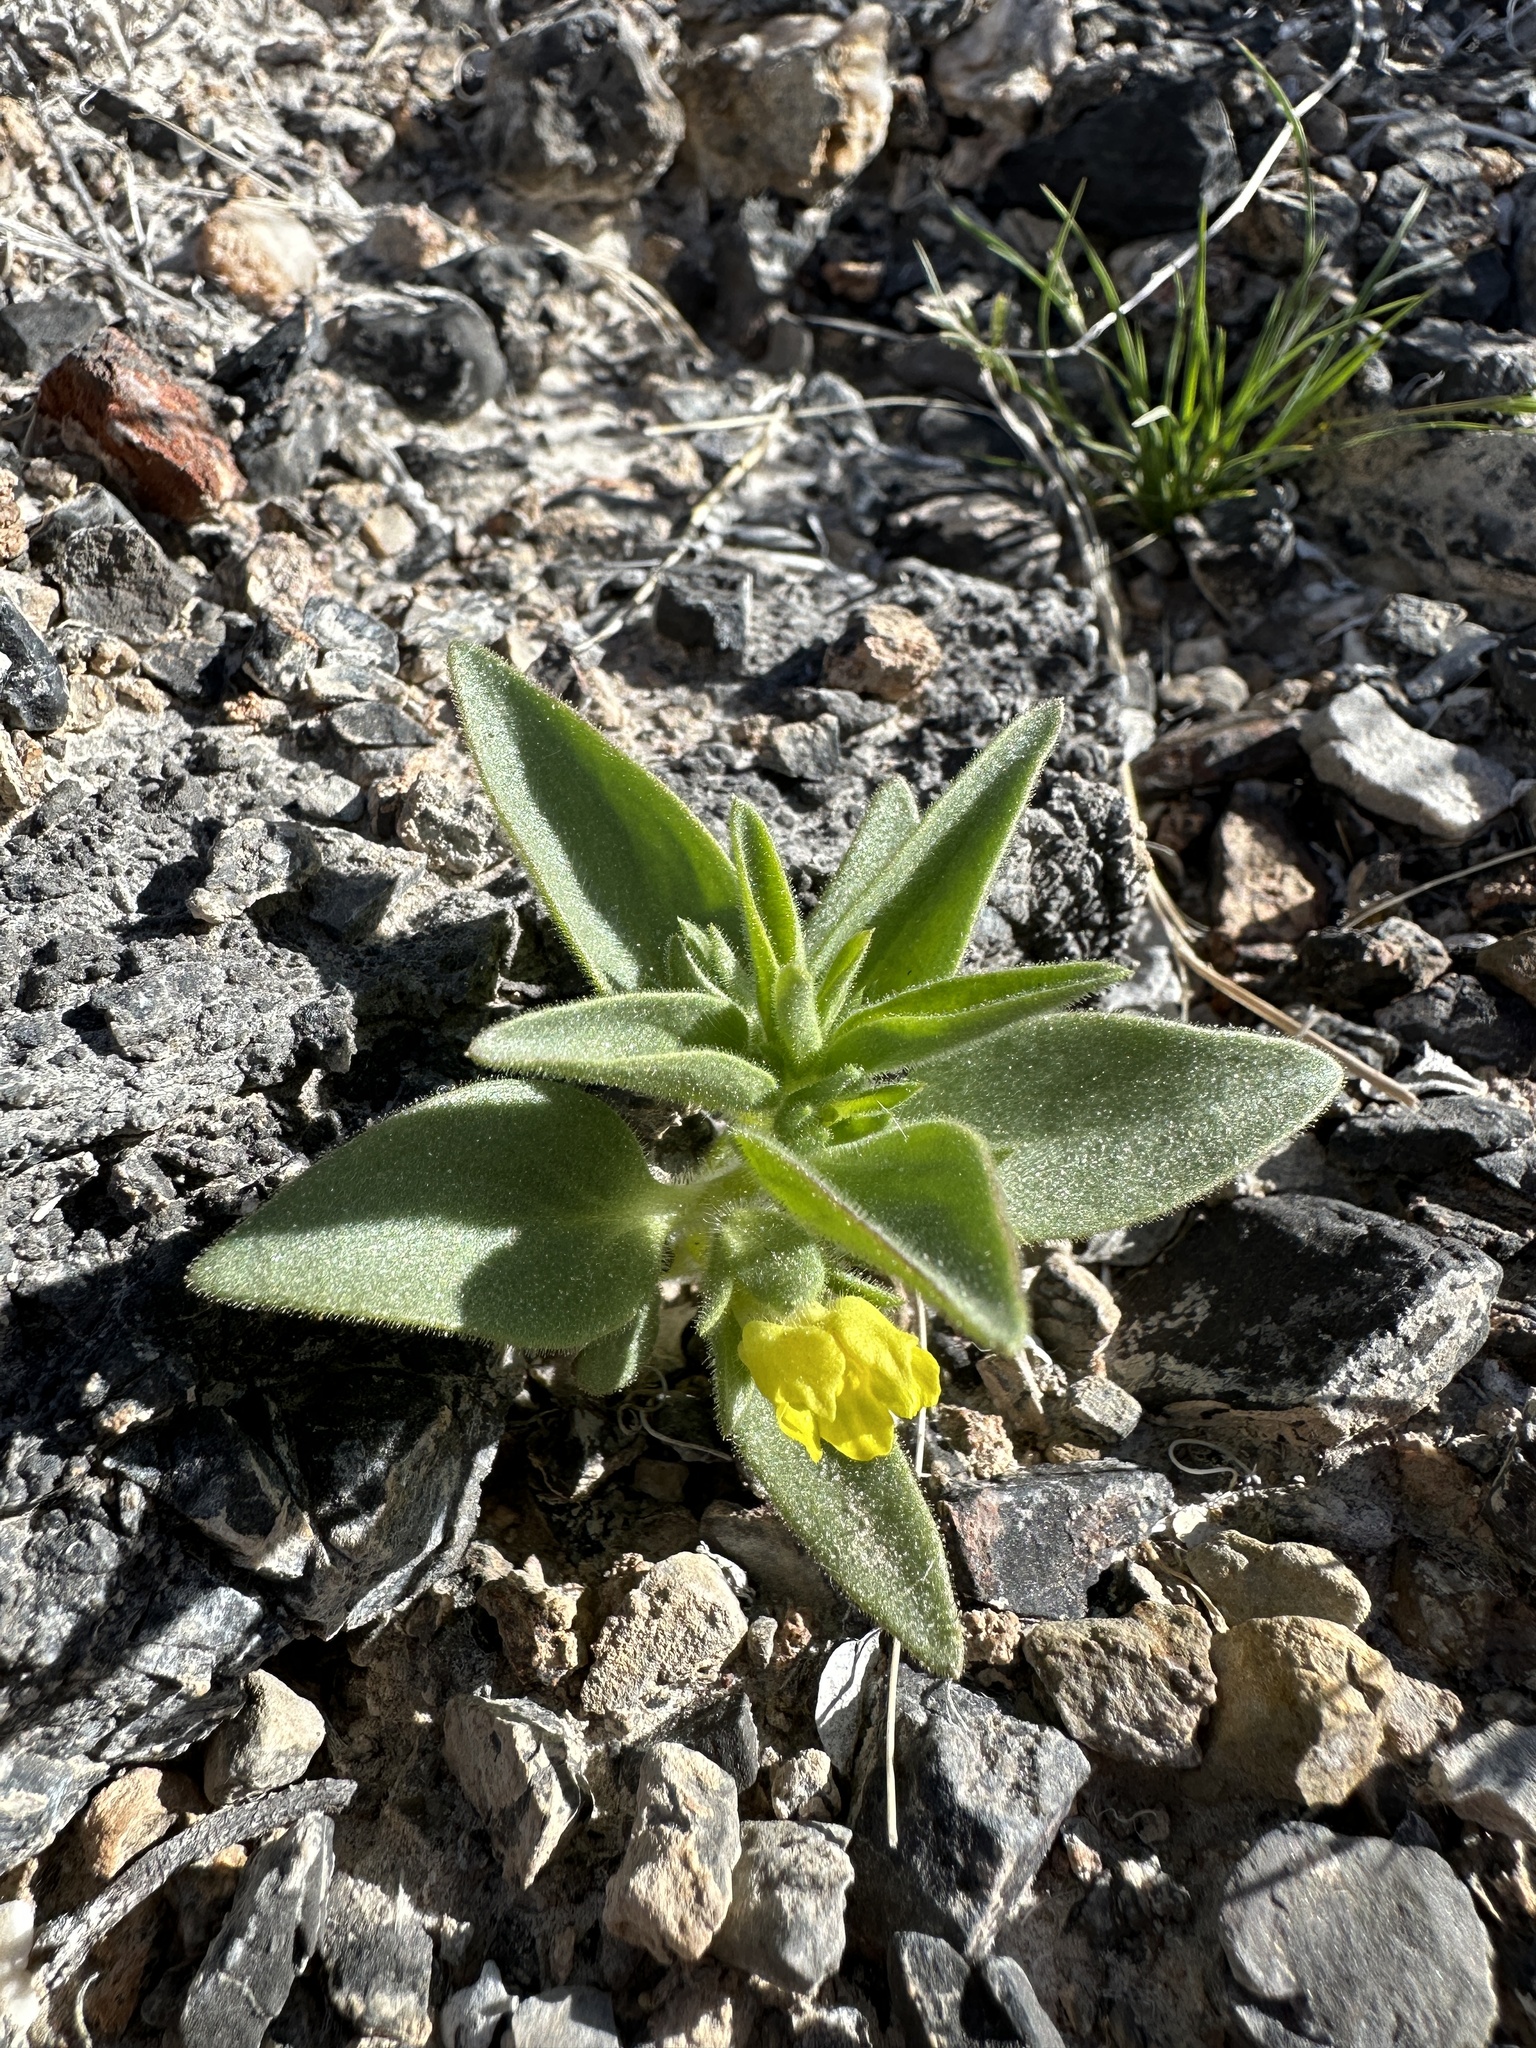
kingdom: Plantae
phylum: Tracheophyta
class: Magnoliopsida
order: Lamiales
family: Plantaginaceae
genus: Mohavea
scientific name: Mohavea breviflora
